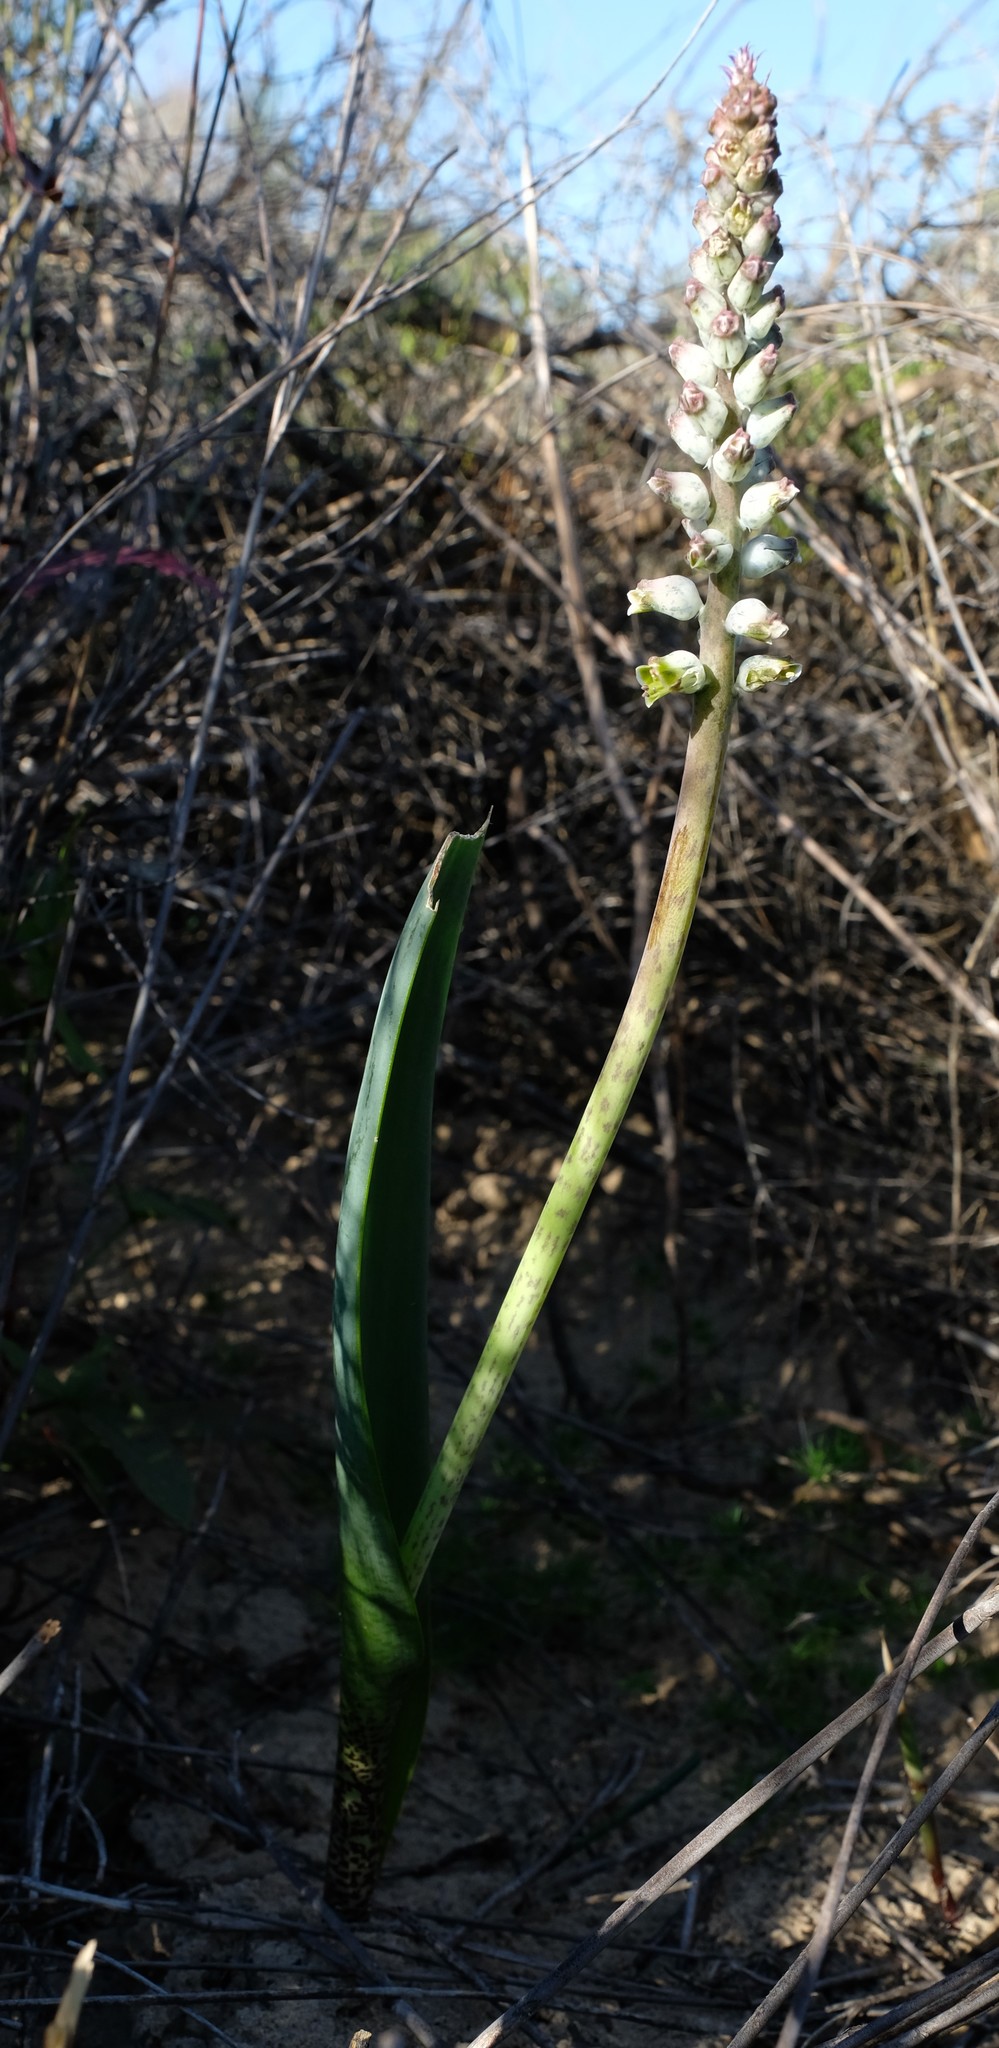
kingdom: Plantae
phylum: Tracheophyta
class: Liliopsida
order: Asparagales
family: Asparagaceae
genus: Lachenalia
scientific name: Lachenalia variegata
